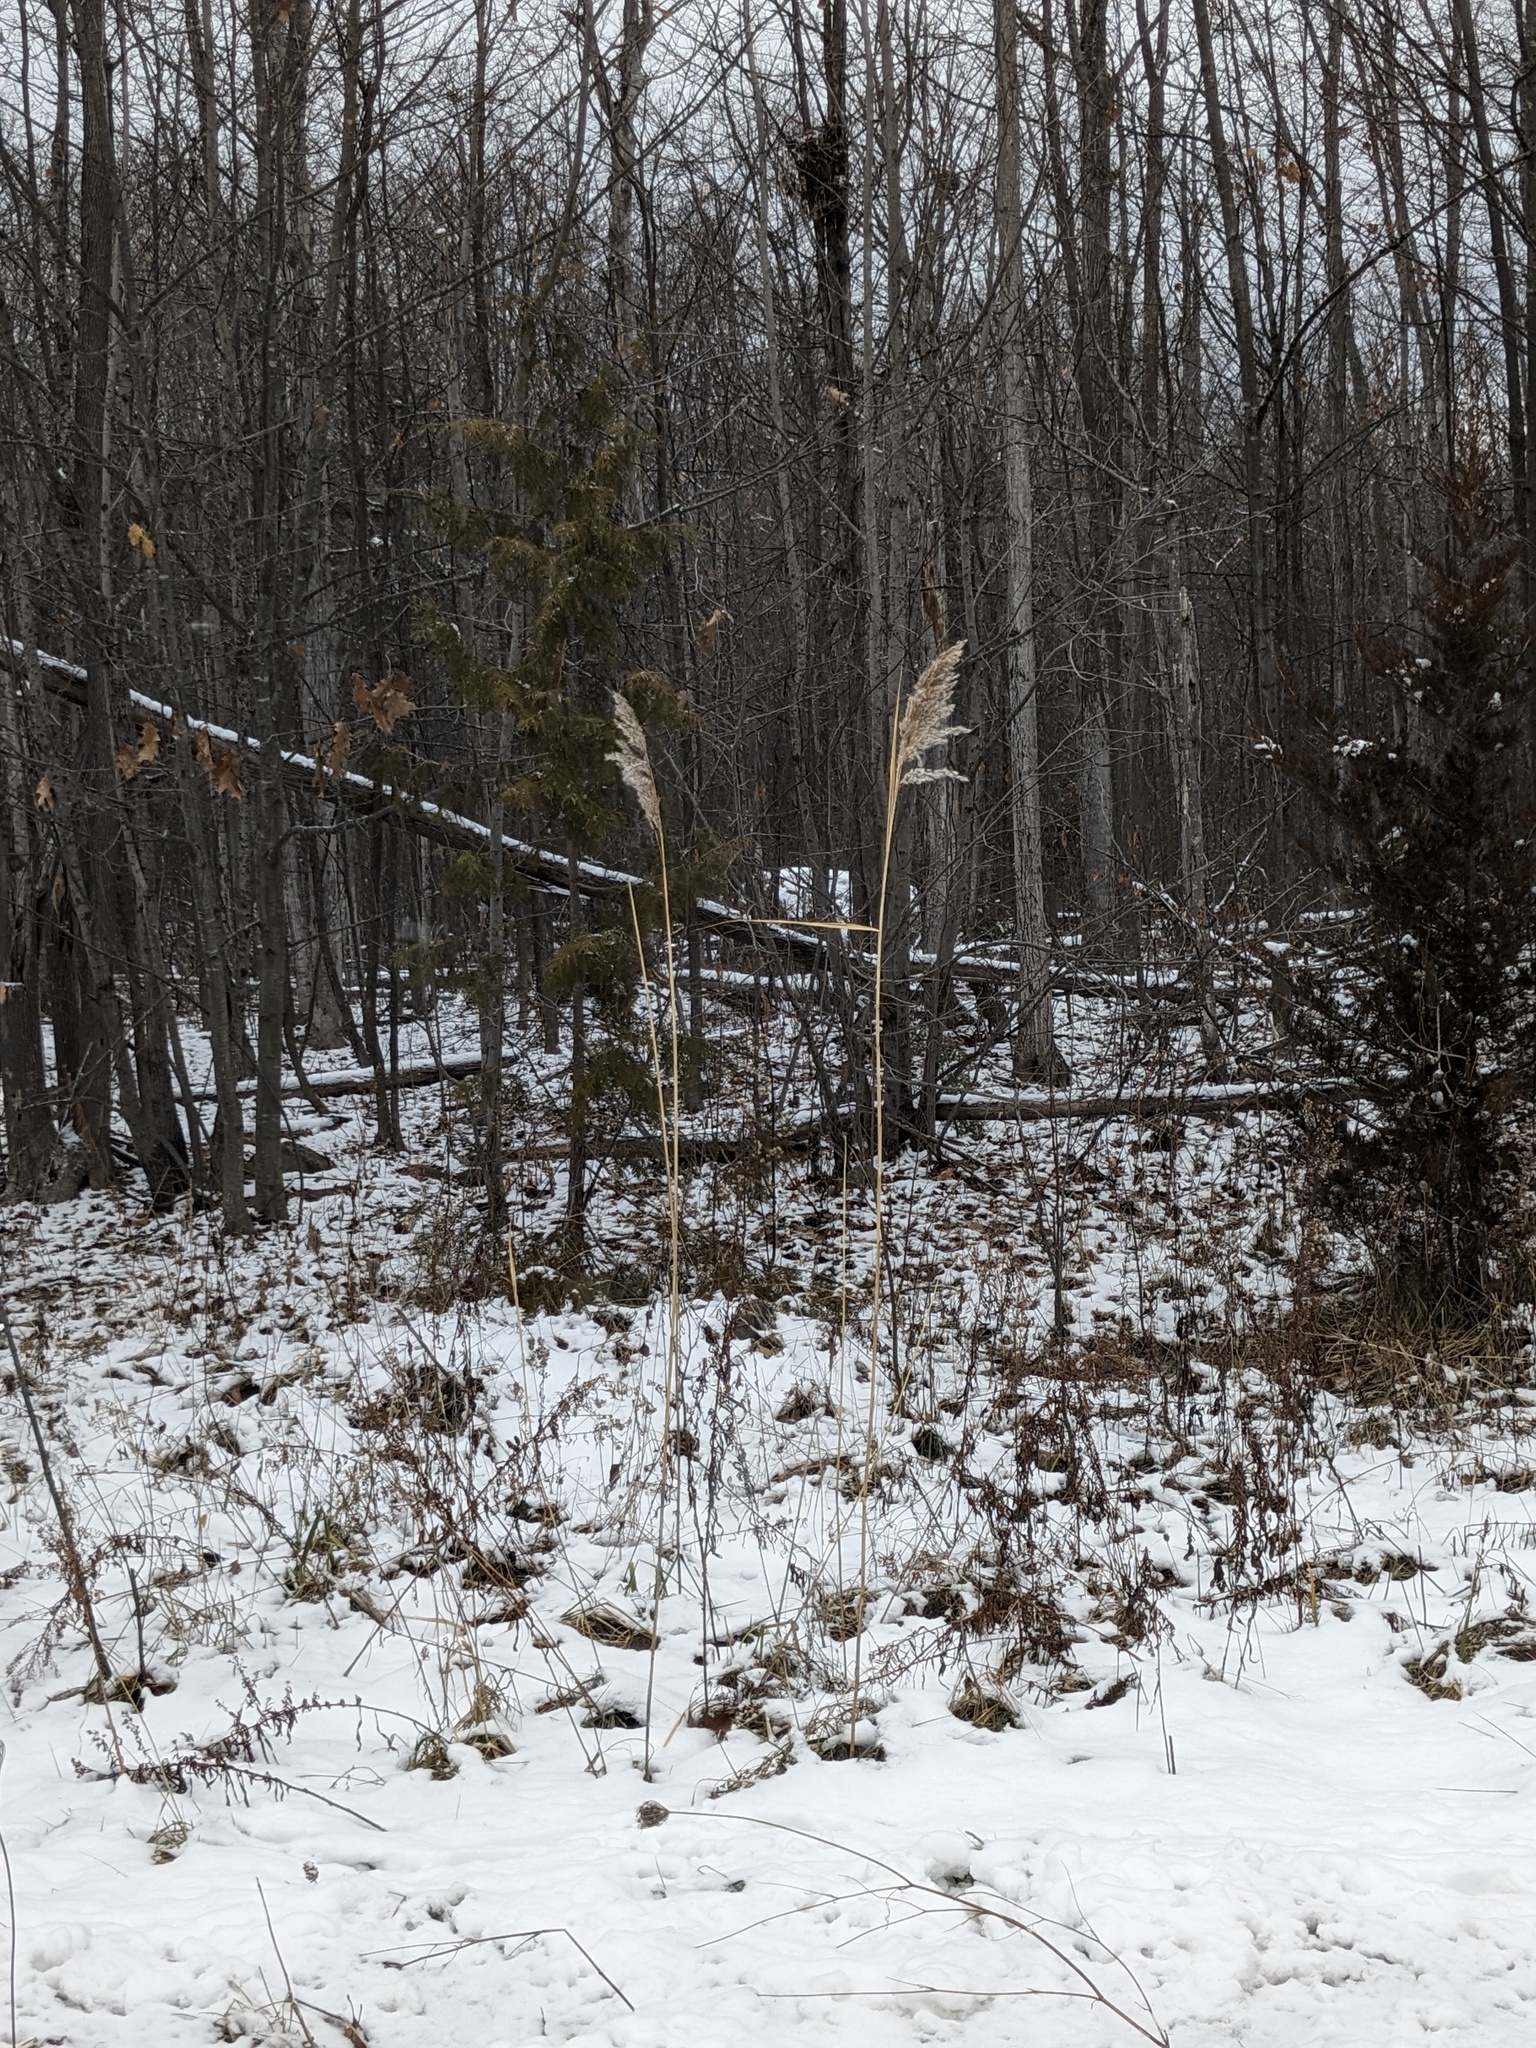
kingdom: Plantae
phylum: Tracheophyta
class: Liliopsida
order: Poales
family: Poaceae
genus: Phragmites
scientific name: Phragmites australis
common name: Common reed
